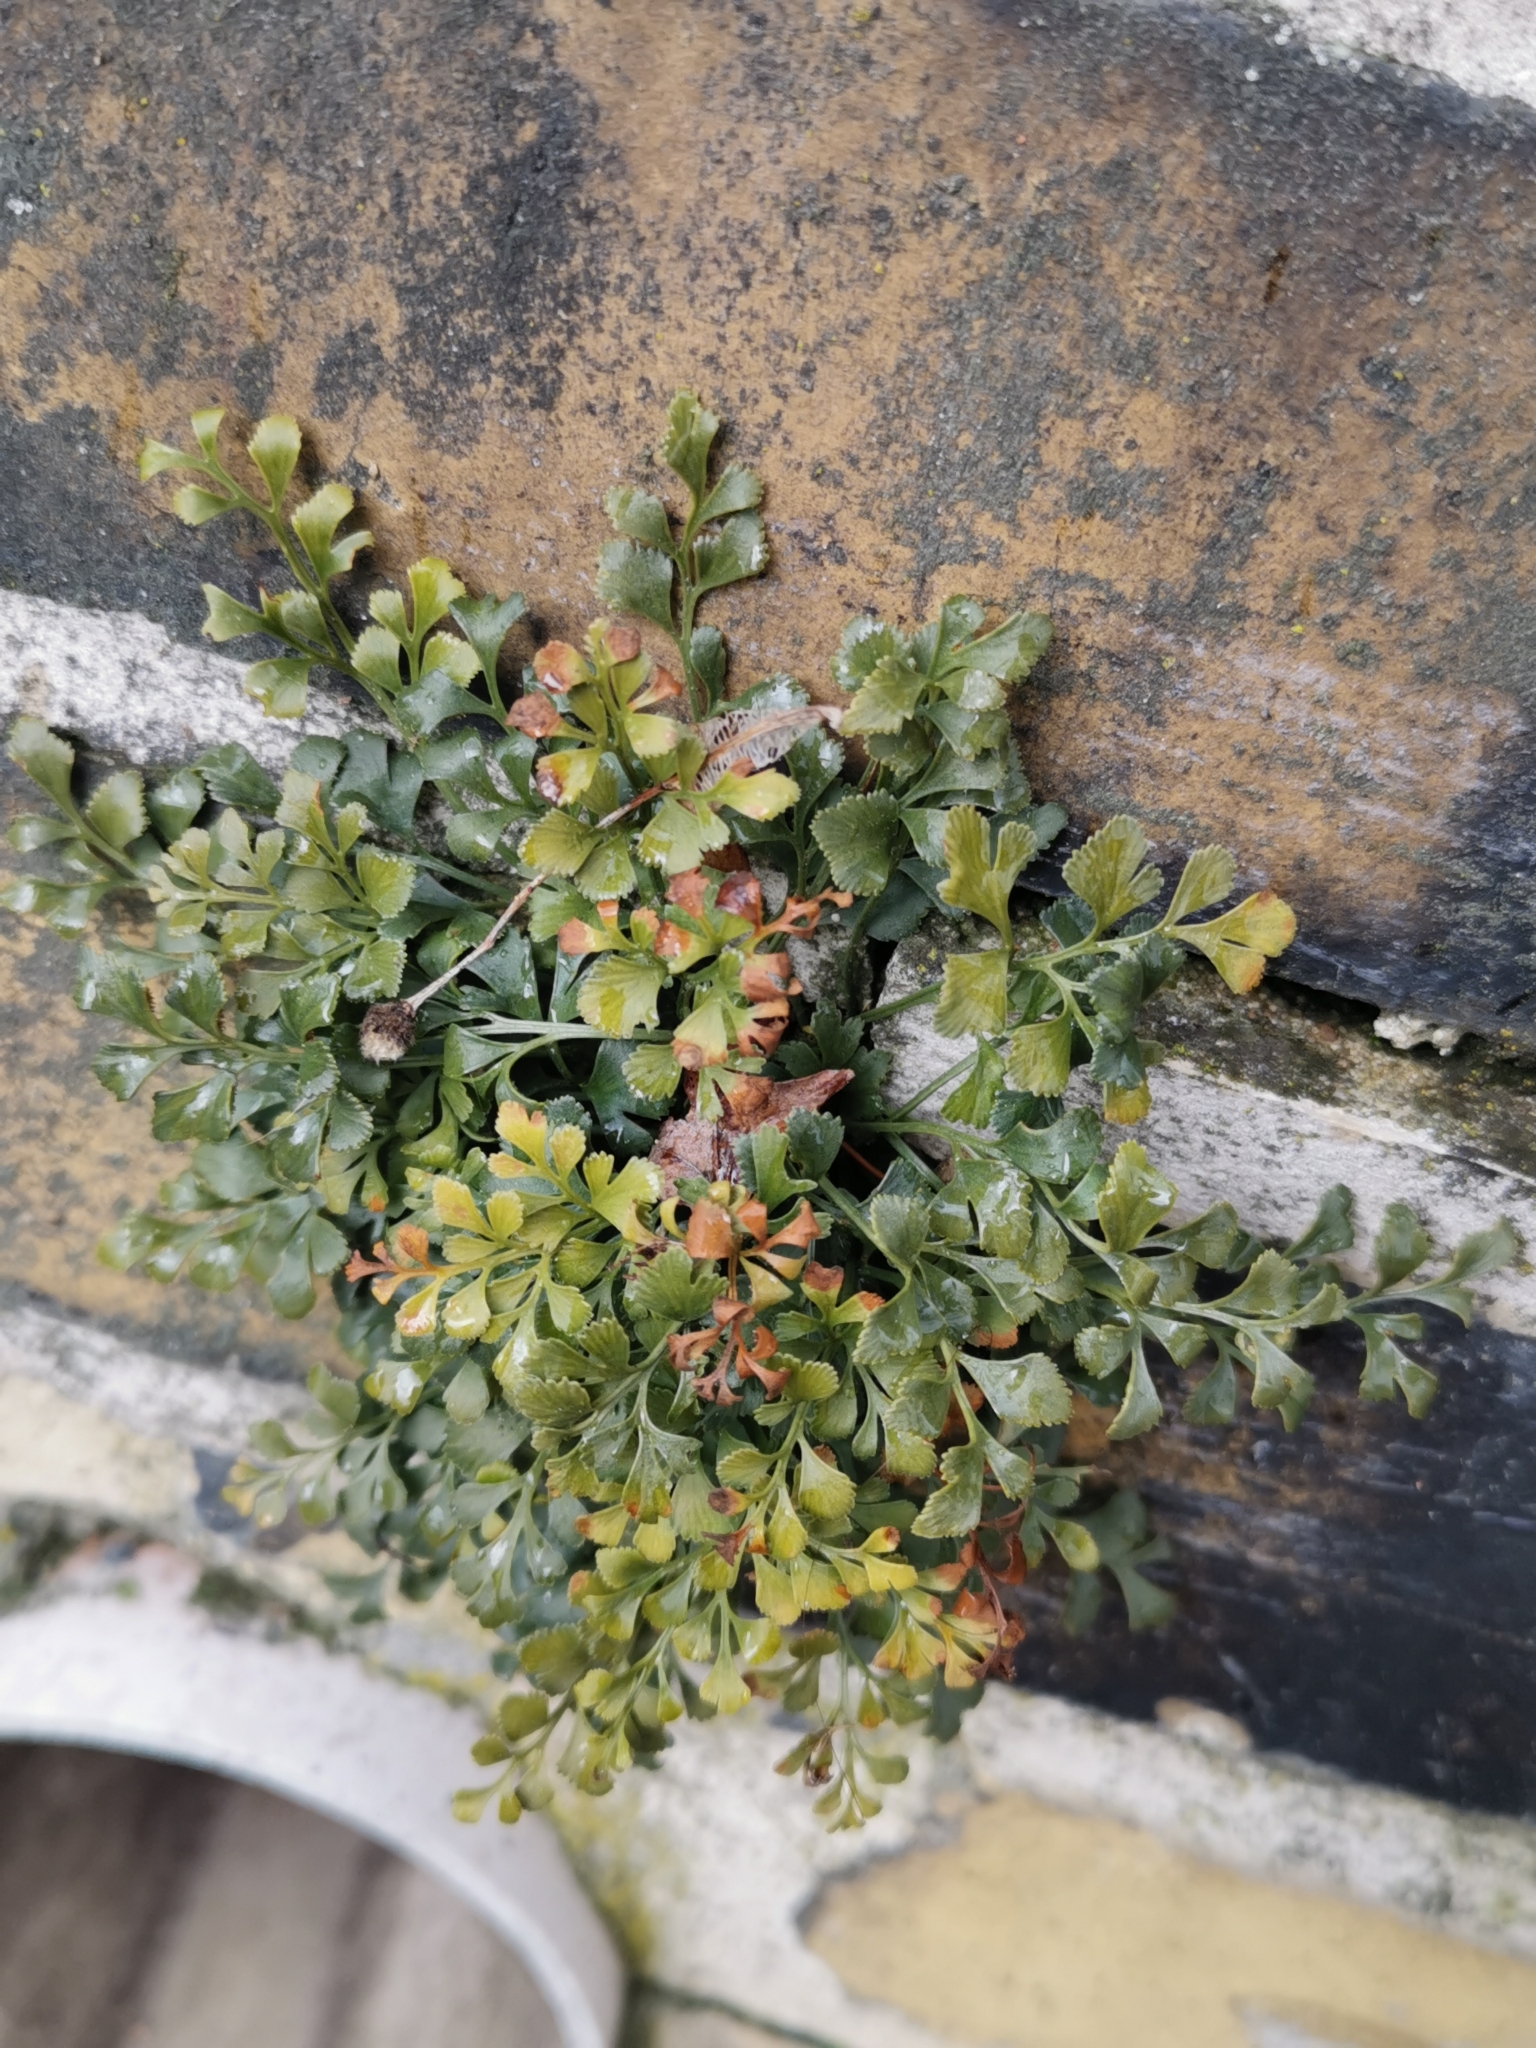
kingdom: Plantae
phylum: Tracheophyta
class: Polypodiopsida
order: Polypodiales
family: Aspleniaceae
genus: Asplenium
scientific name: Asplenium ruta-muraria
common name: Wall-rue
